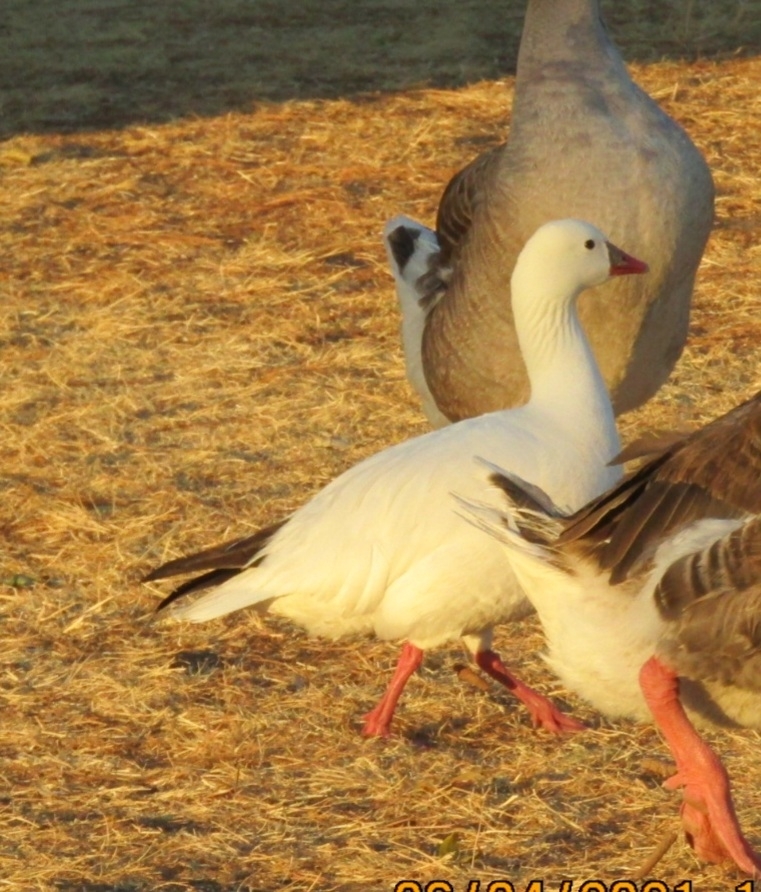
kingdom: Animalia
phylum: Chordata
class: Aves
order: Anseriformes
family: Anatidae
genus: Anser
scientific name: Anser rossii
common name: Ross's goose
